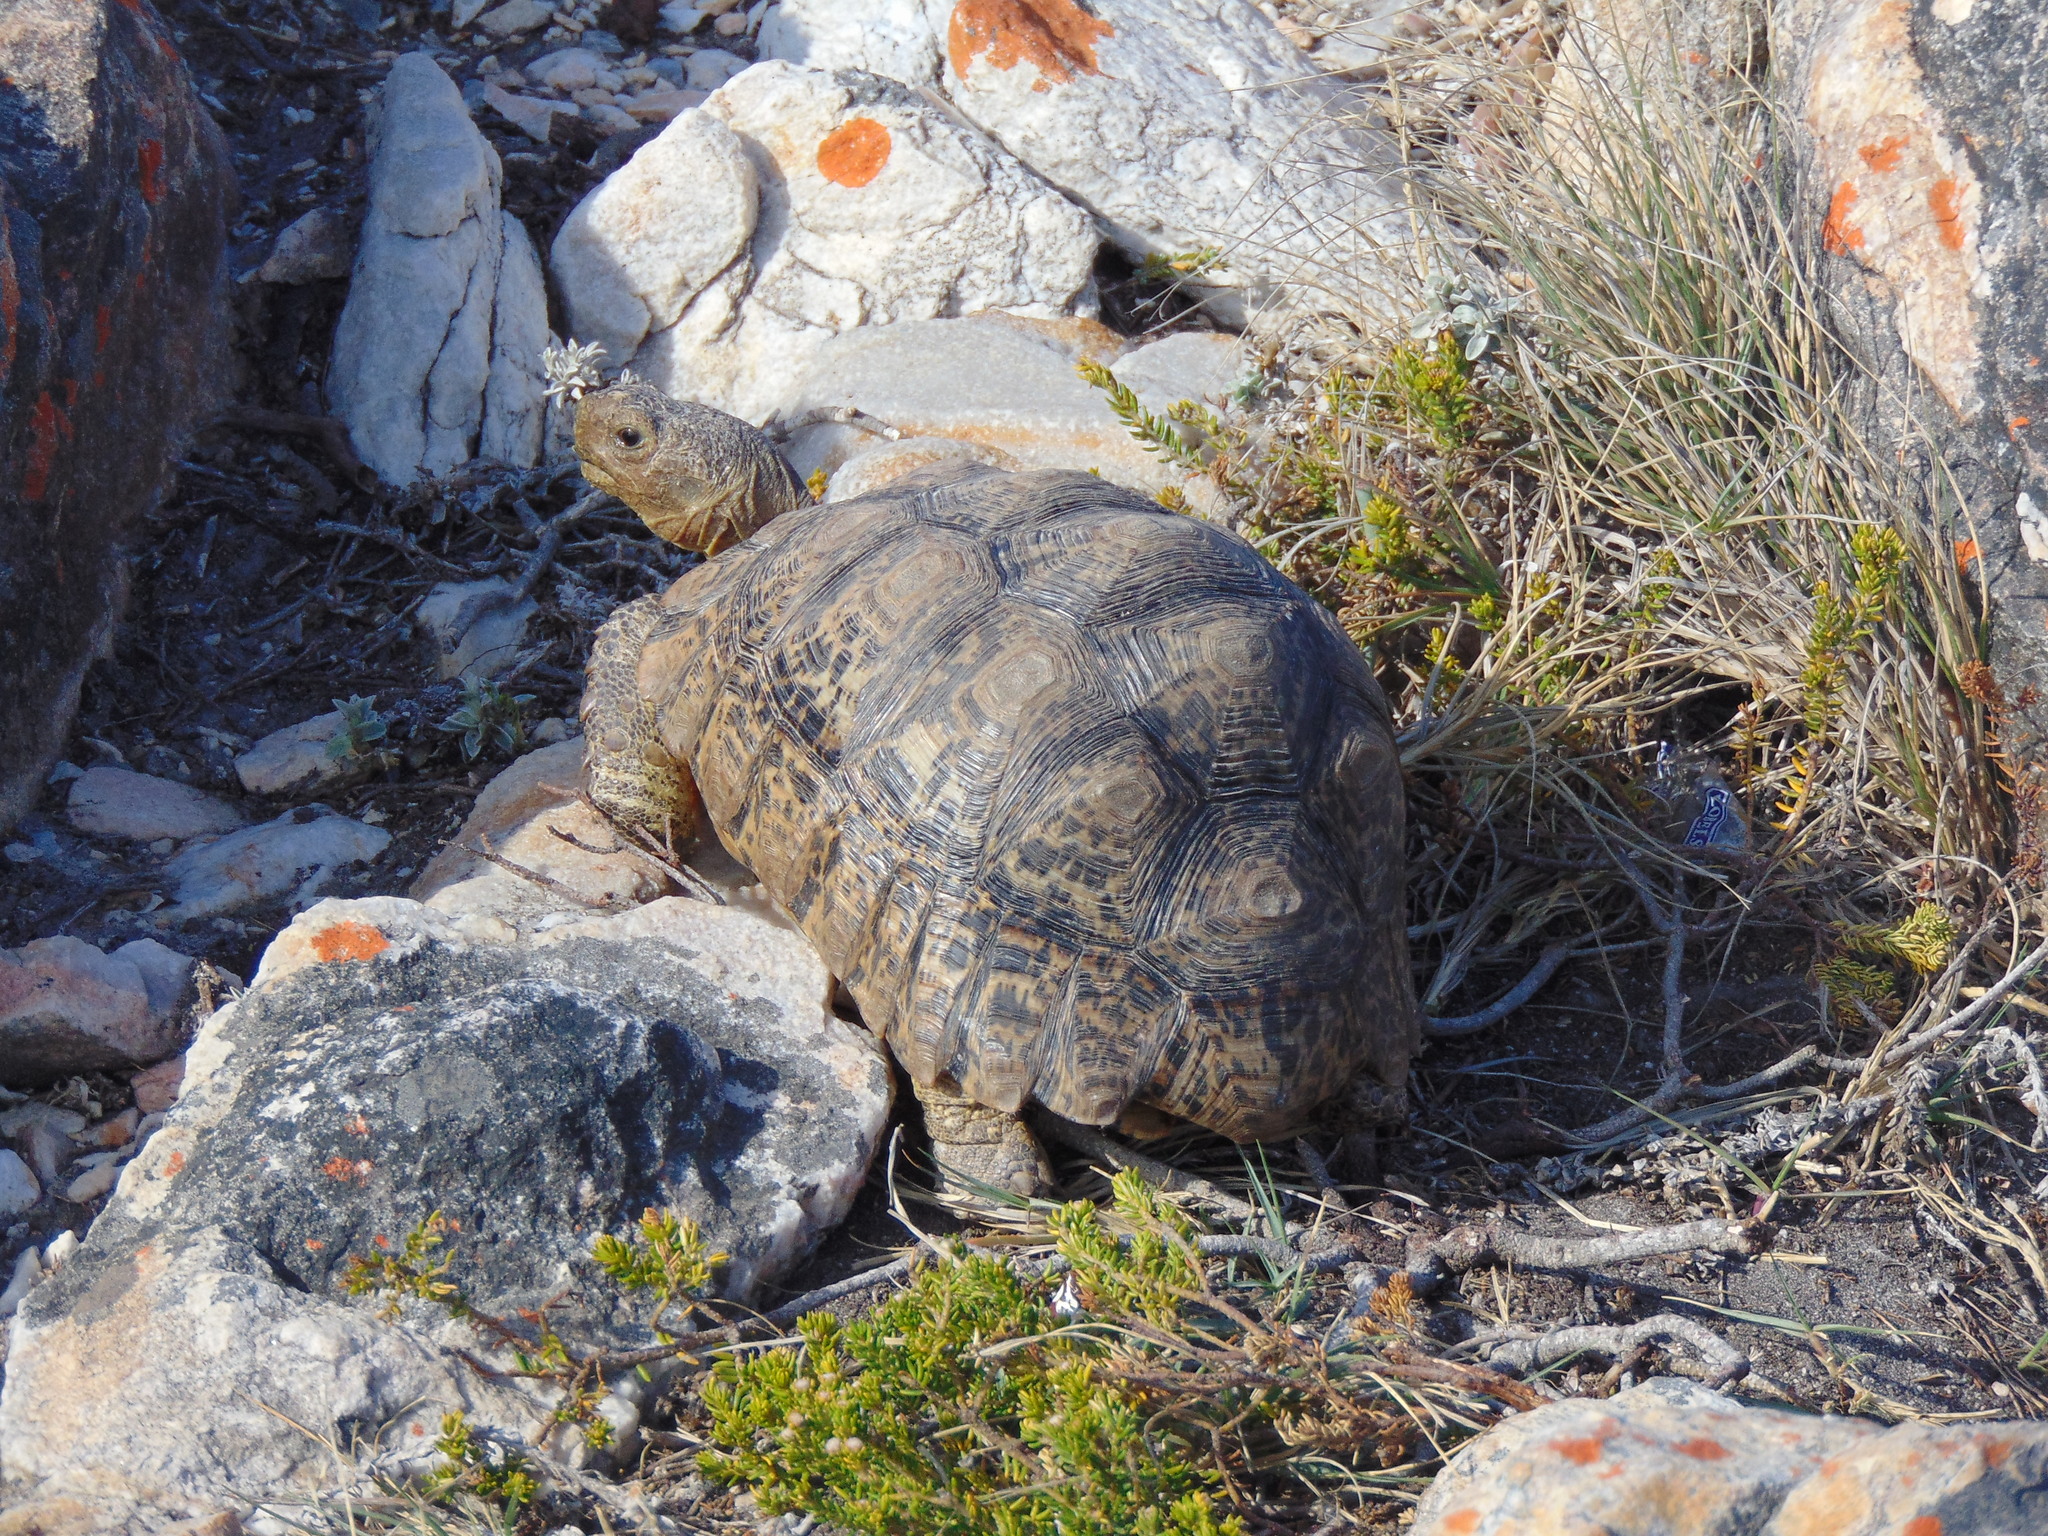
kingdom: Animalia
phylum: Chordata
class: Testudines
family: Testudinidae
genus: Stigmochelys
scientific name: Stigmochelys pardalis
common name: Leopard tortoise
